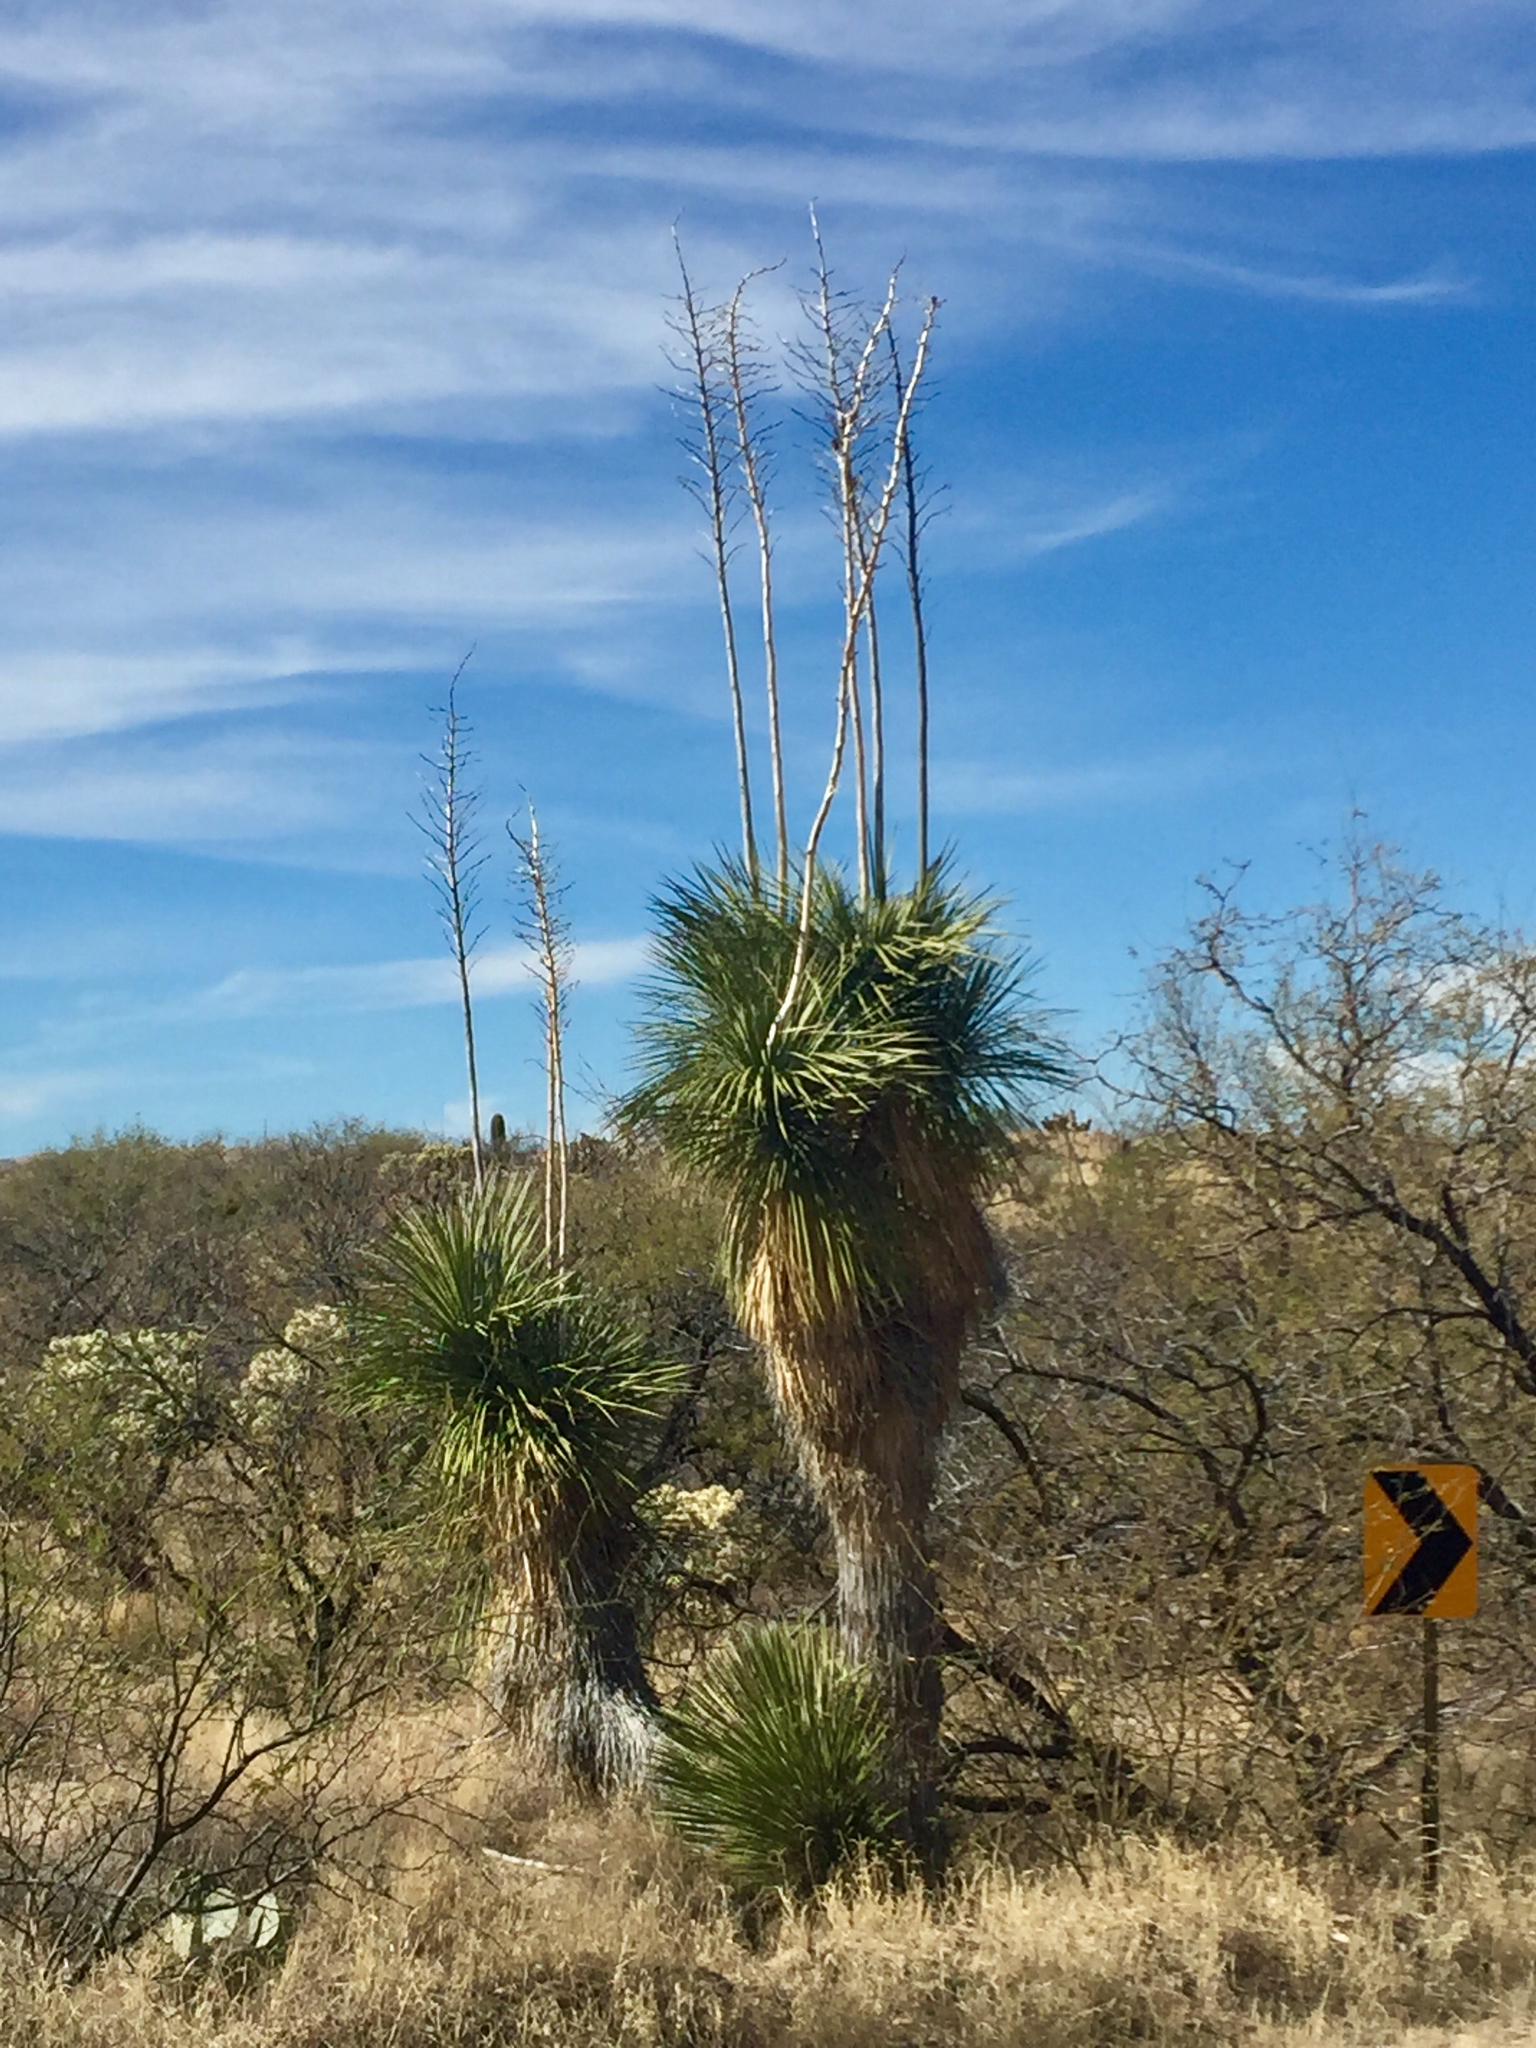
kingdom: Plantae
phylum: Tracheophyta
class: Liliopsida
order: Asparagales
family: Asparagaceae
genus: Yucca
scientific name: Yucca elata
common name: Palmella
